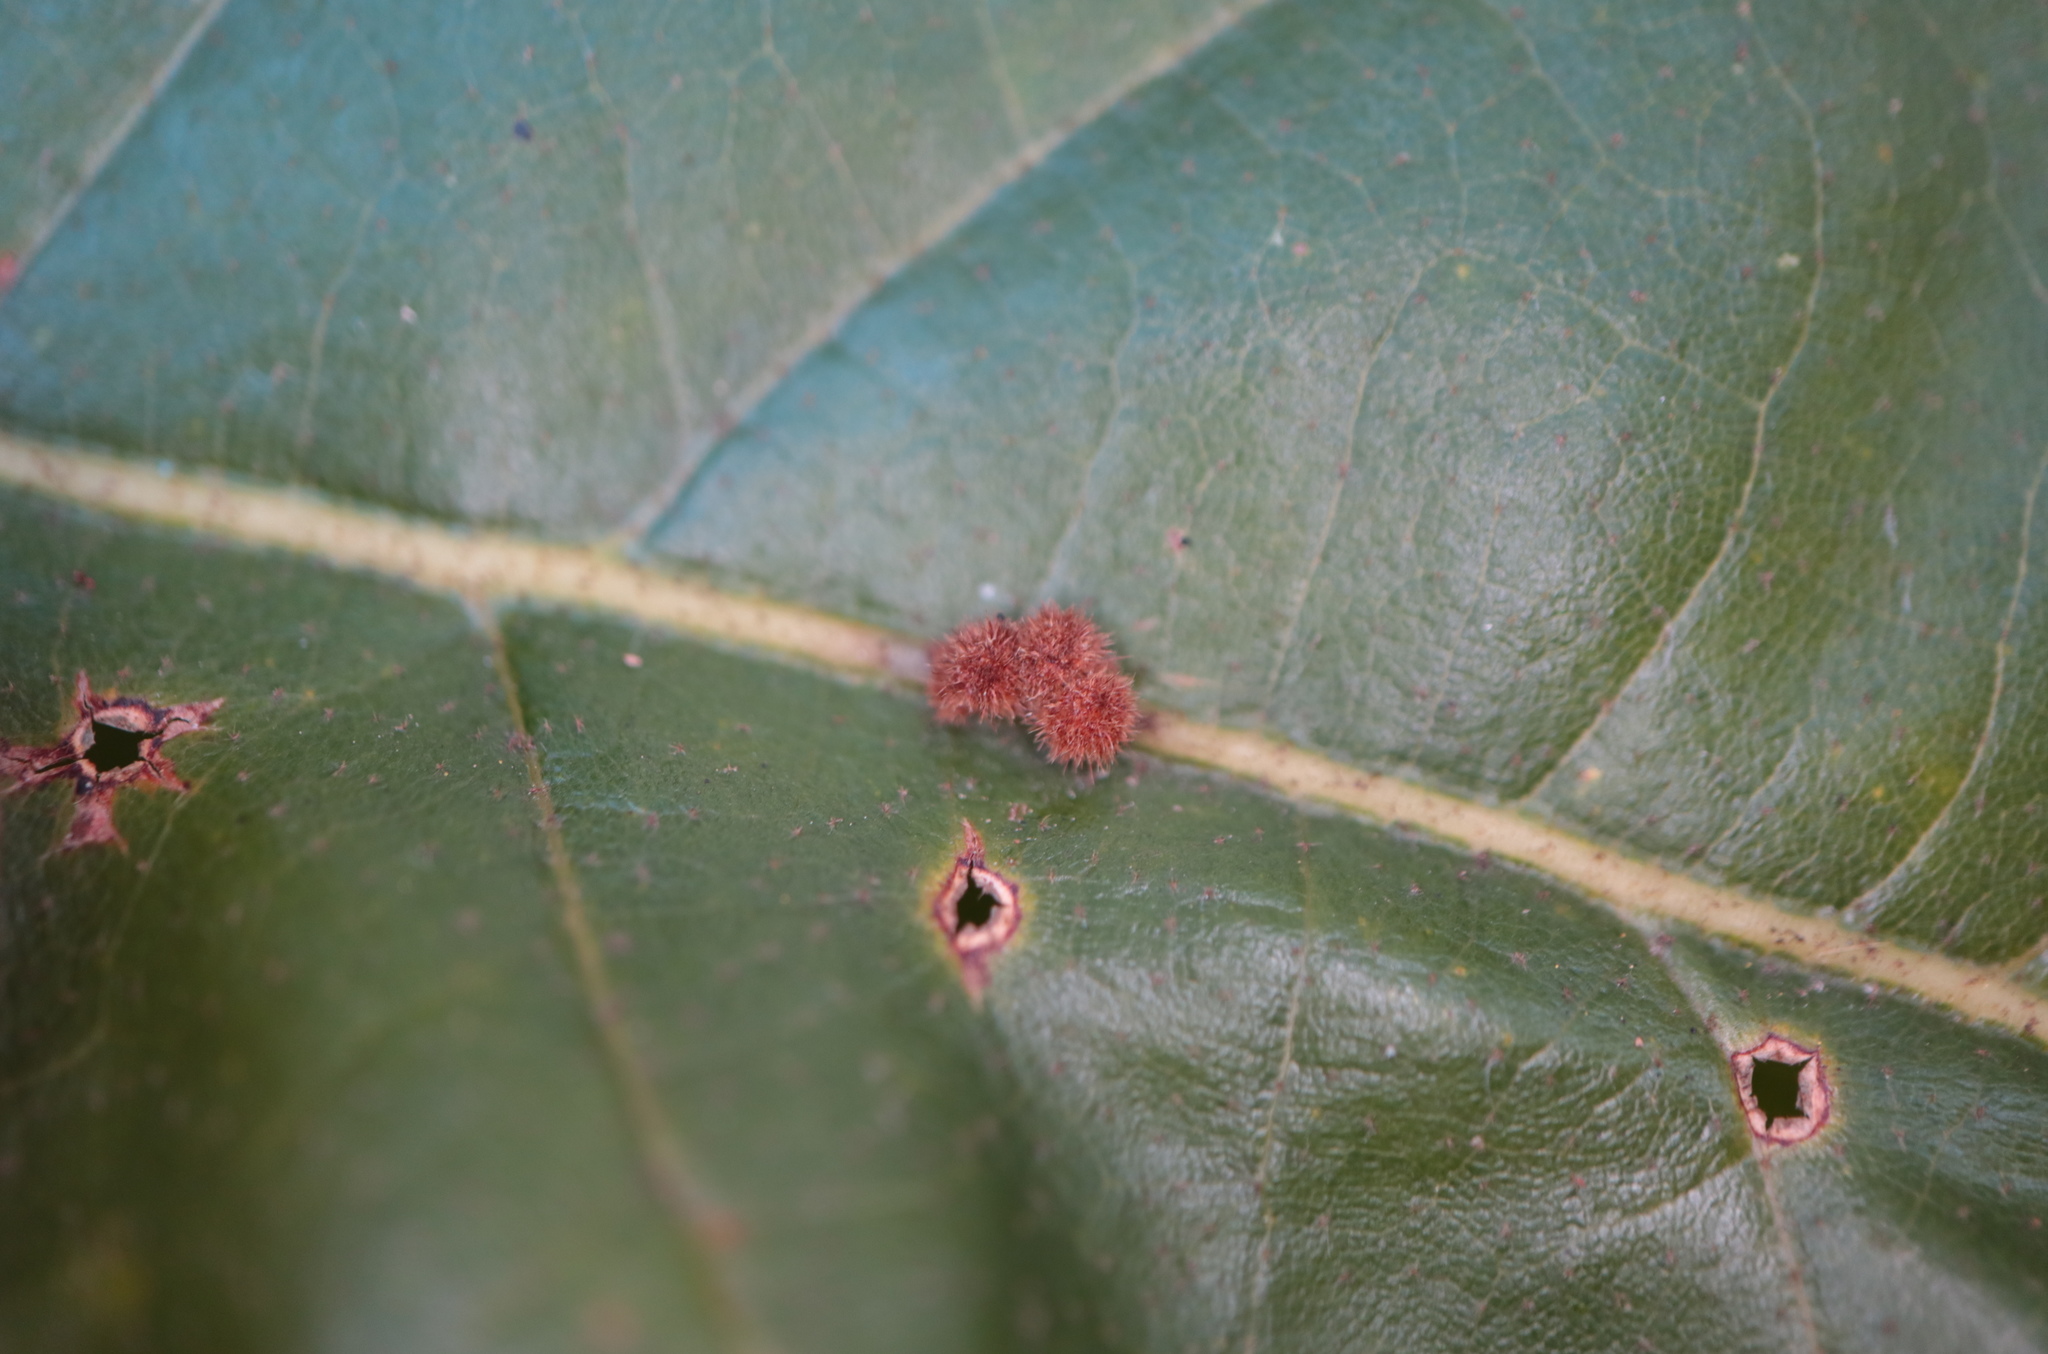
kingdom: Animalia
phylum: Arthropoda
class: Insecta
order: Hymenoptera
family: Cynipidae
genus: Biorhiza
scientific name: Biorhiza Sphaeroteras carolina
